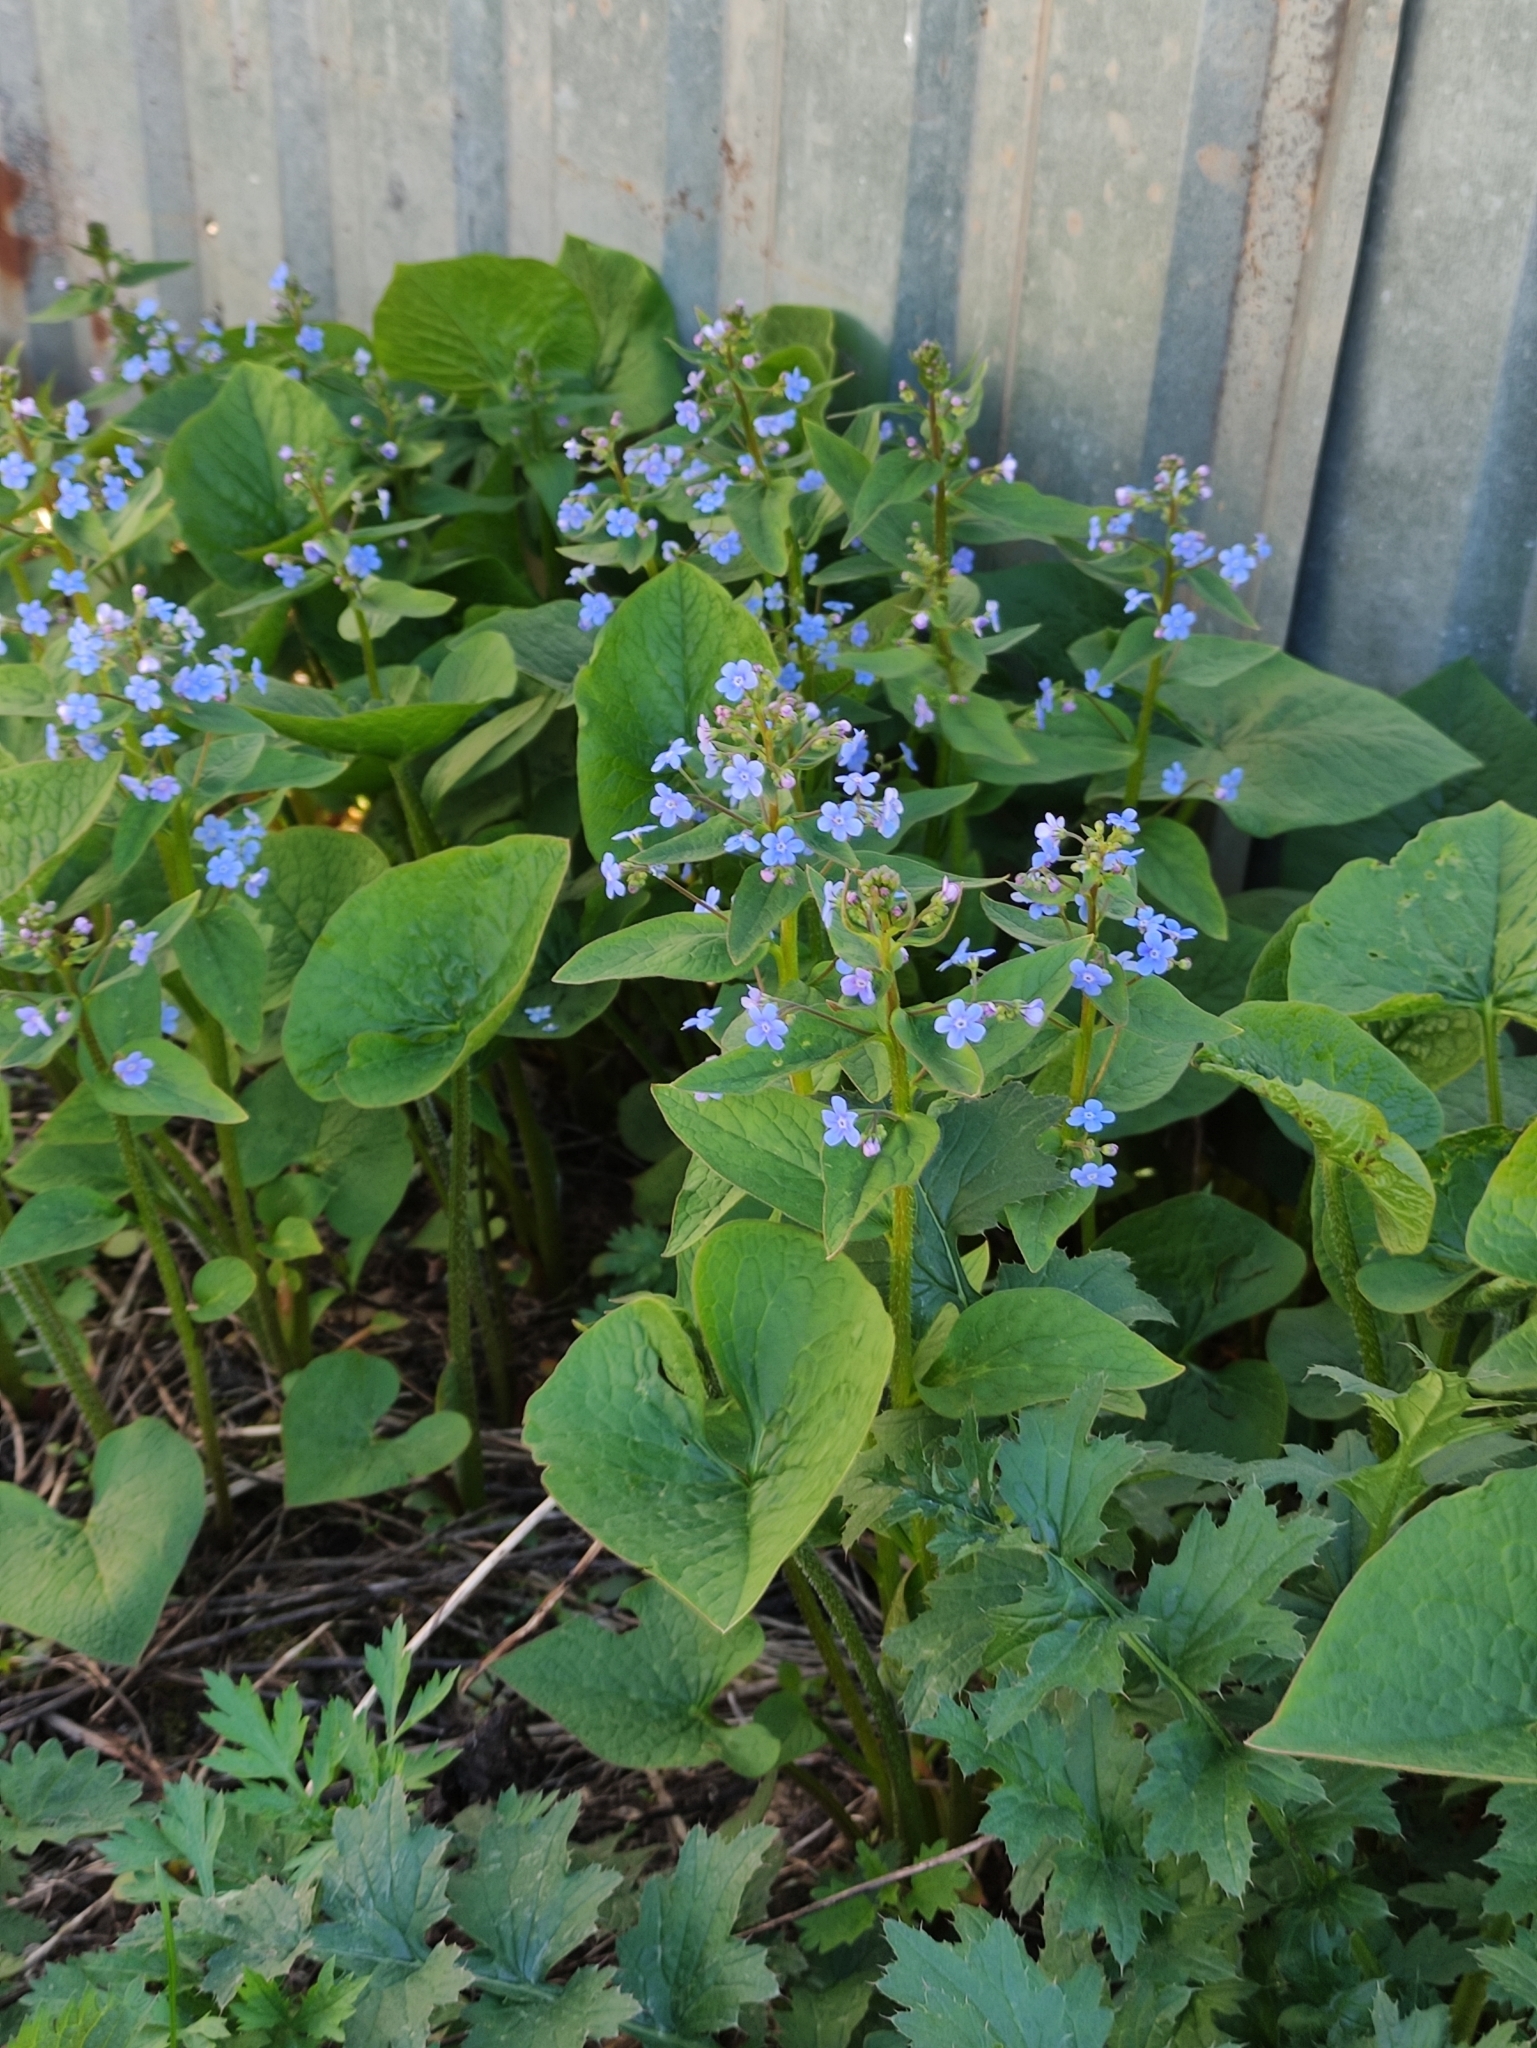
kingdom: Plantae
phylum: Tracheophyta
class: Magnoliopsida
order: Boraginales
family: Boraginaceae
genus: Brunnera
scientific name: Brunnera sibirica
